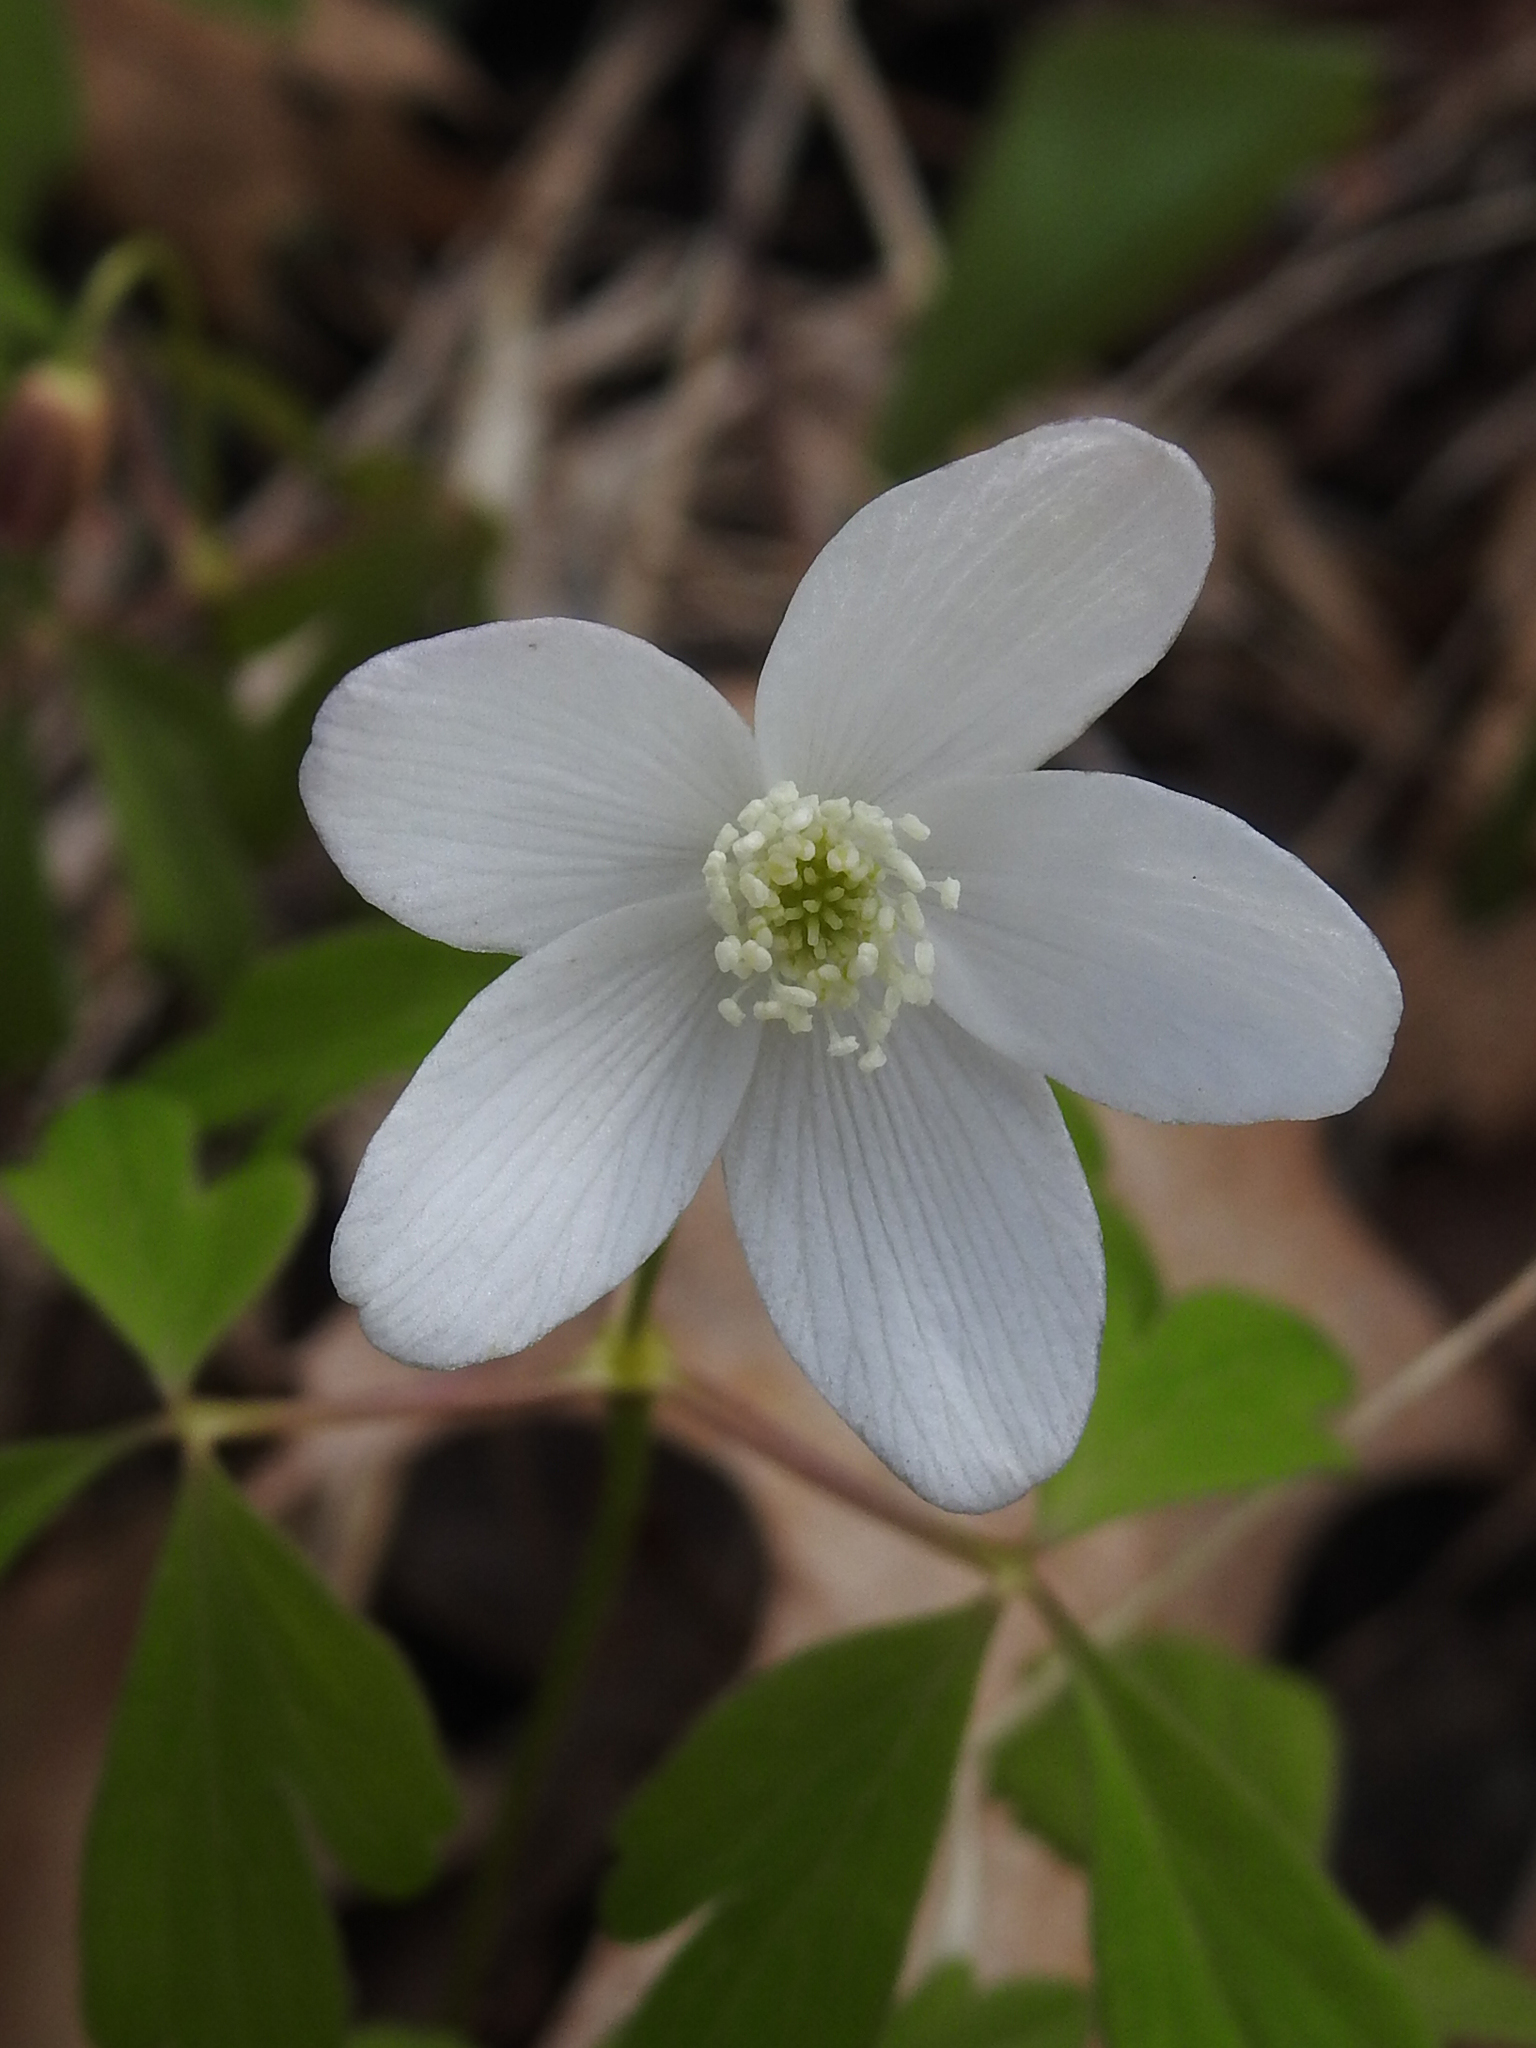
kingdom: Plantae
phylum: Tracheophyta
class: Magnoliopsida
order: Ranunculales
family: Ranunculaceae
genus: Anemone
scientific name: Anemone quinquefolia
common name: Wood anemone
